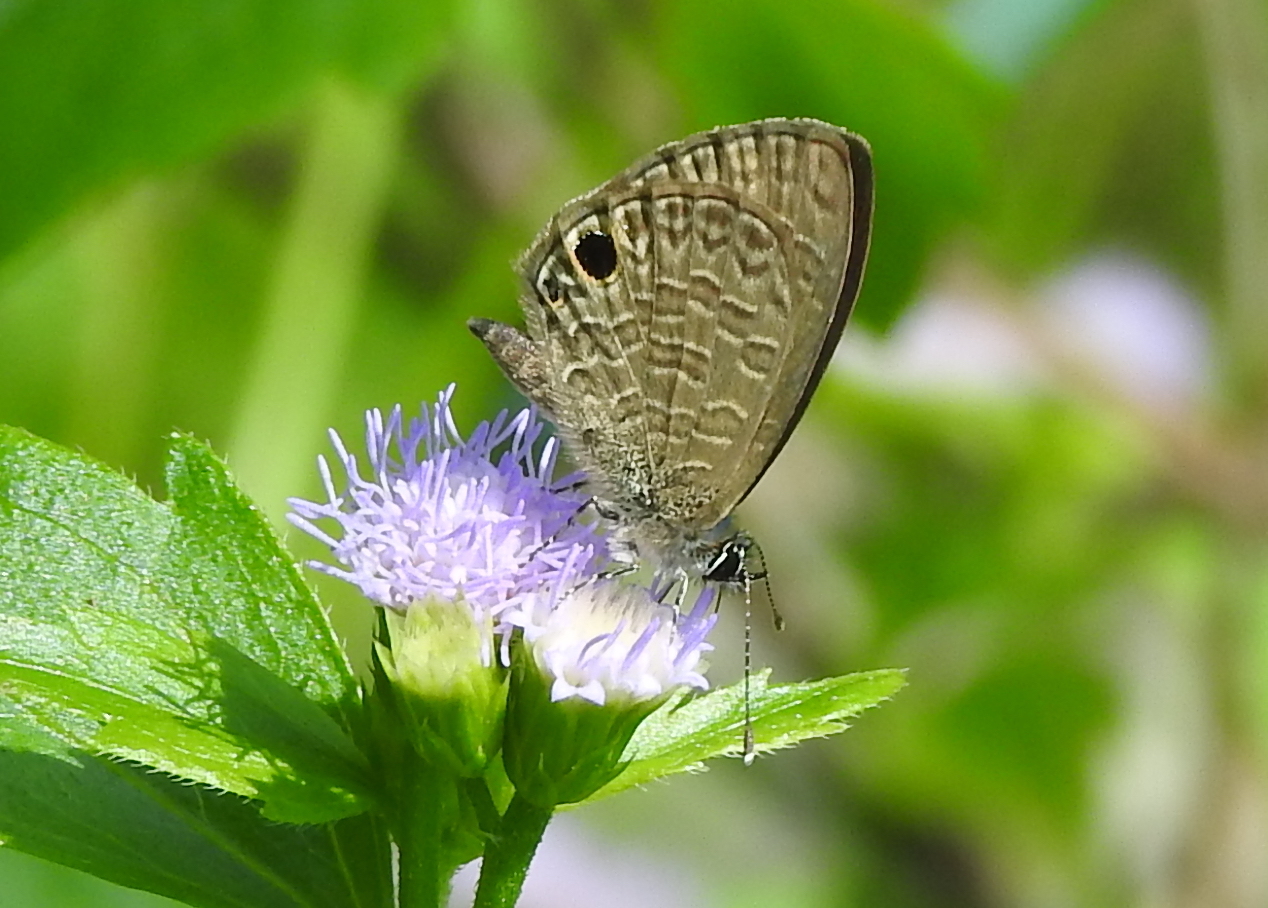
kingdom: Animalia
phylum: Arthropoda
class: Insecta
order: Lepidoptera
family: Lycaenidae
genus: Prosotas
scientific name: Prosotas dubiosa
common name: Tailless lineblue
